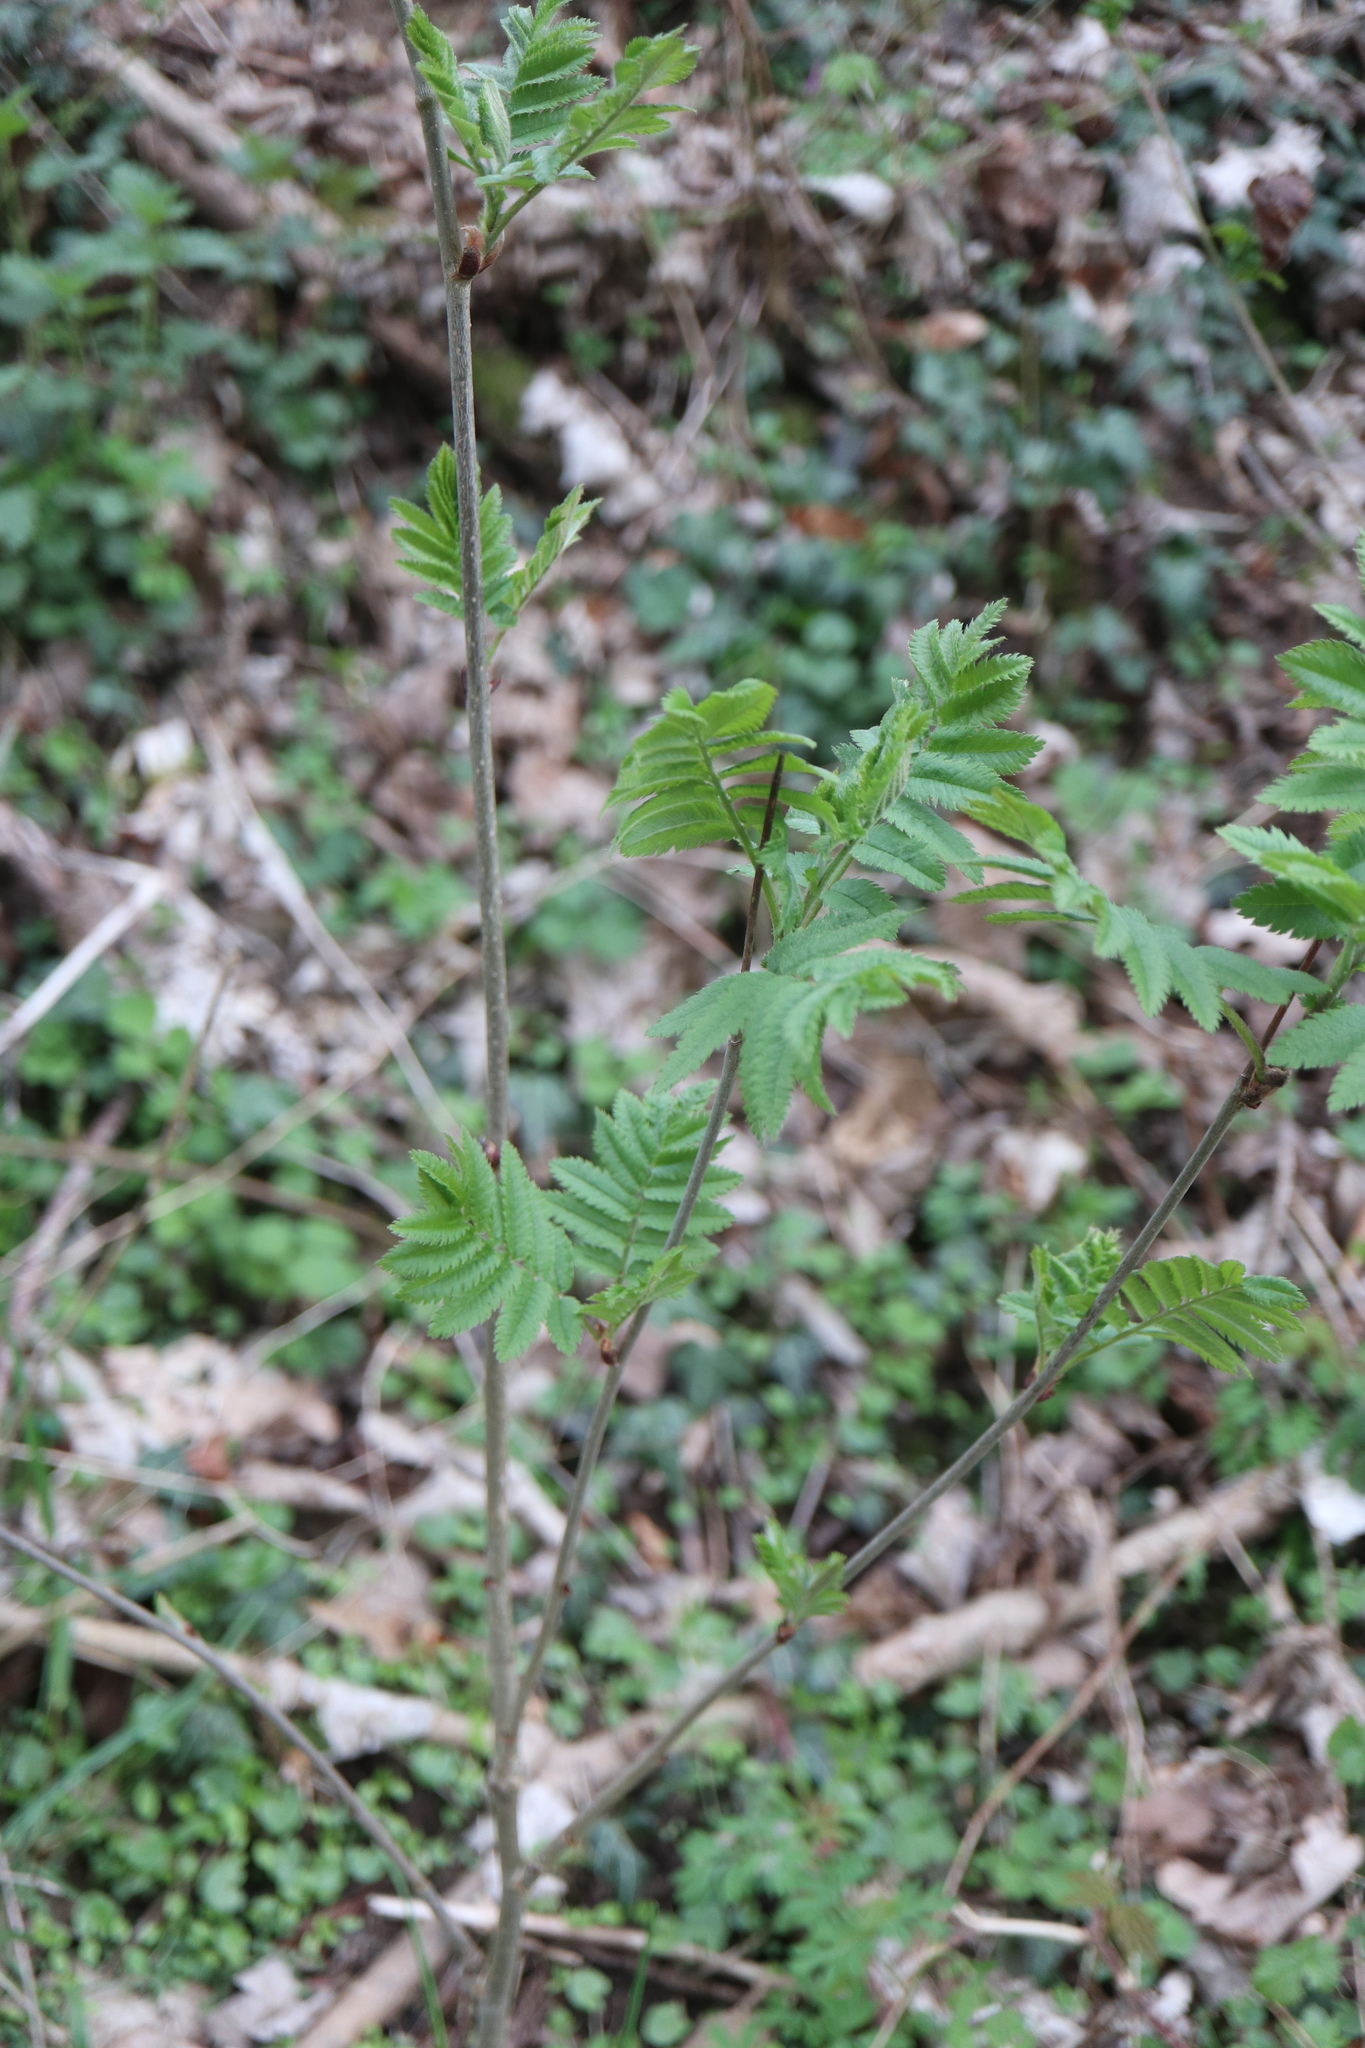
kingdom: Plantae
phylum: Tracheophyta
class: Magnoliopsida
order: Rosales
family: Rosaceae
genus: Sorbus
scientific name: Sorbus aucuparia
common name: Rowan
